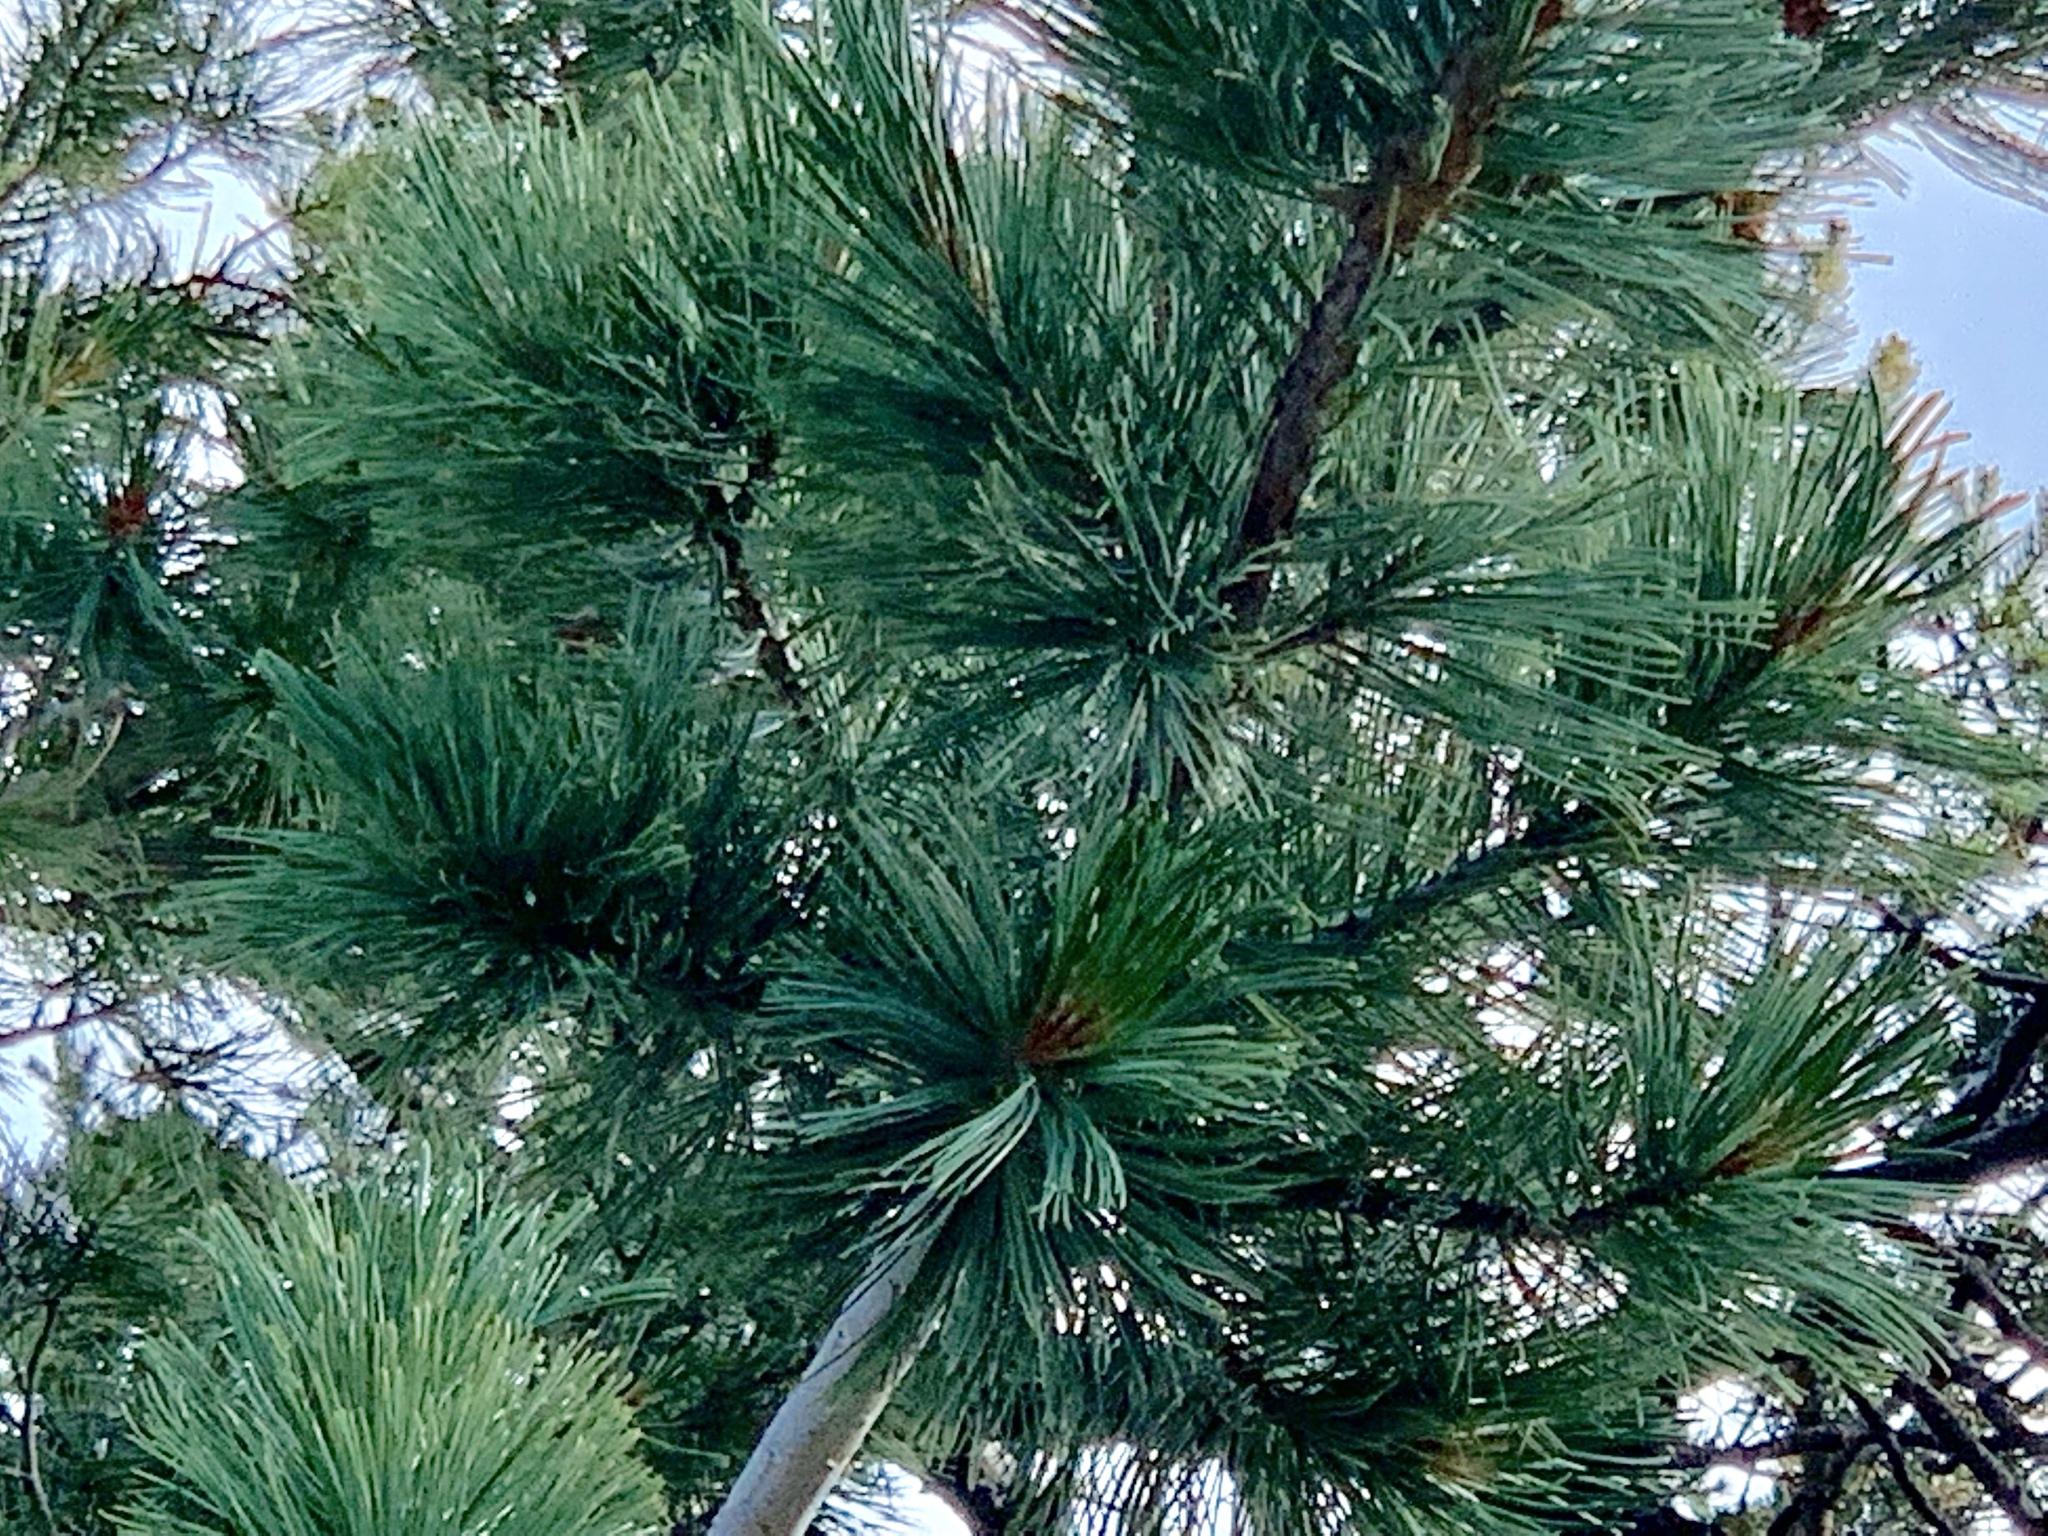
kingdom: Plantae
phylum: Tracheophyta
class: Pinopsida
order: Pinales
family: Pinaceae
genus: Pinus
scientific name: Pinus strobiformis
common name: Southwestern white pine
